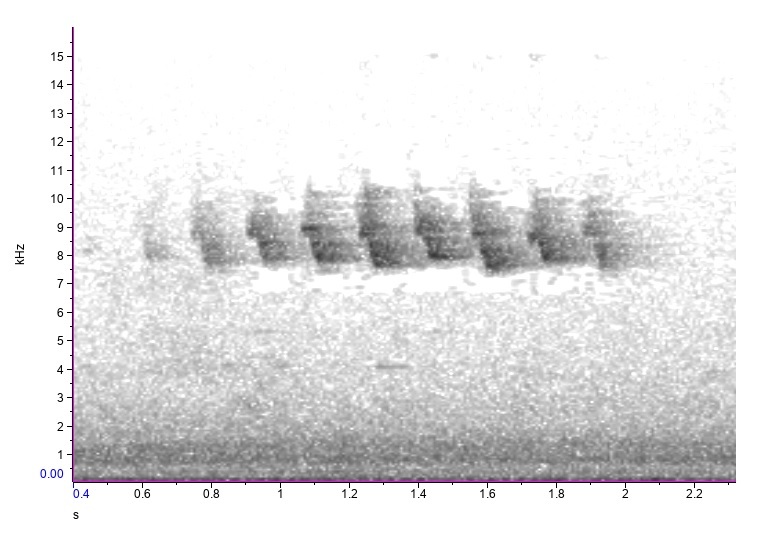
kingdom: Animalia
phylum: Chordata
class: Aves
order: Passeriformes
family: Parulidae
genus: Setophaga
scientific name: Setophaga striata
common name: Blackpoll warbler
